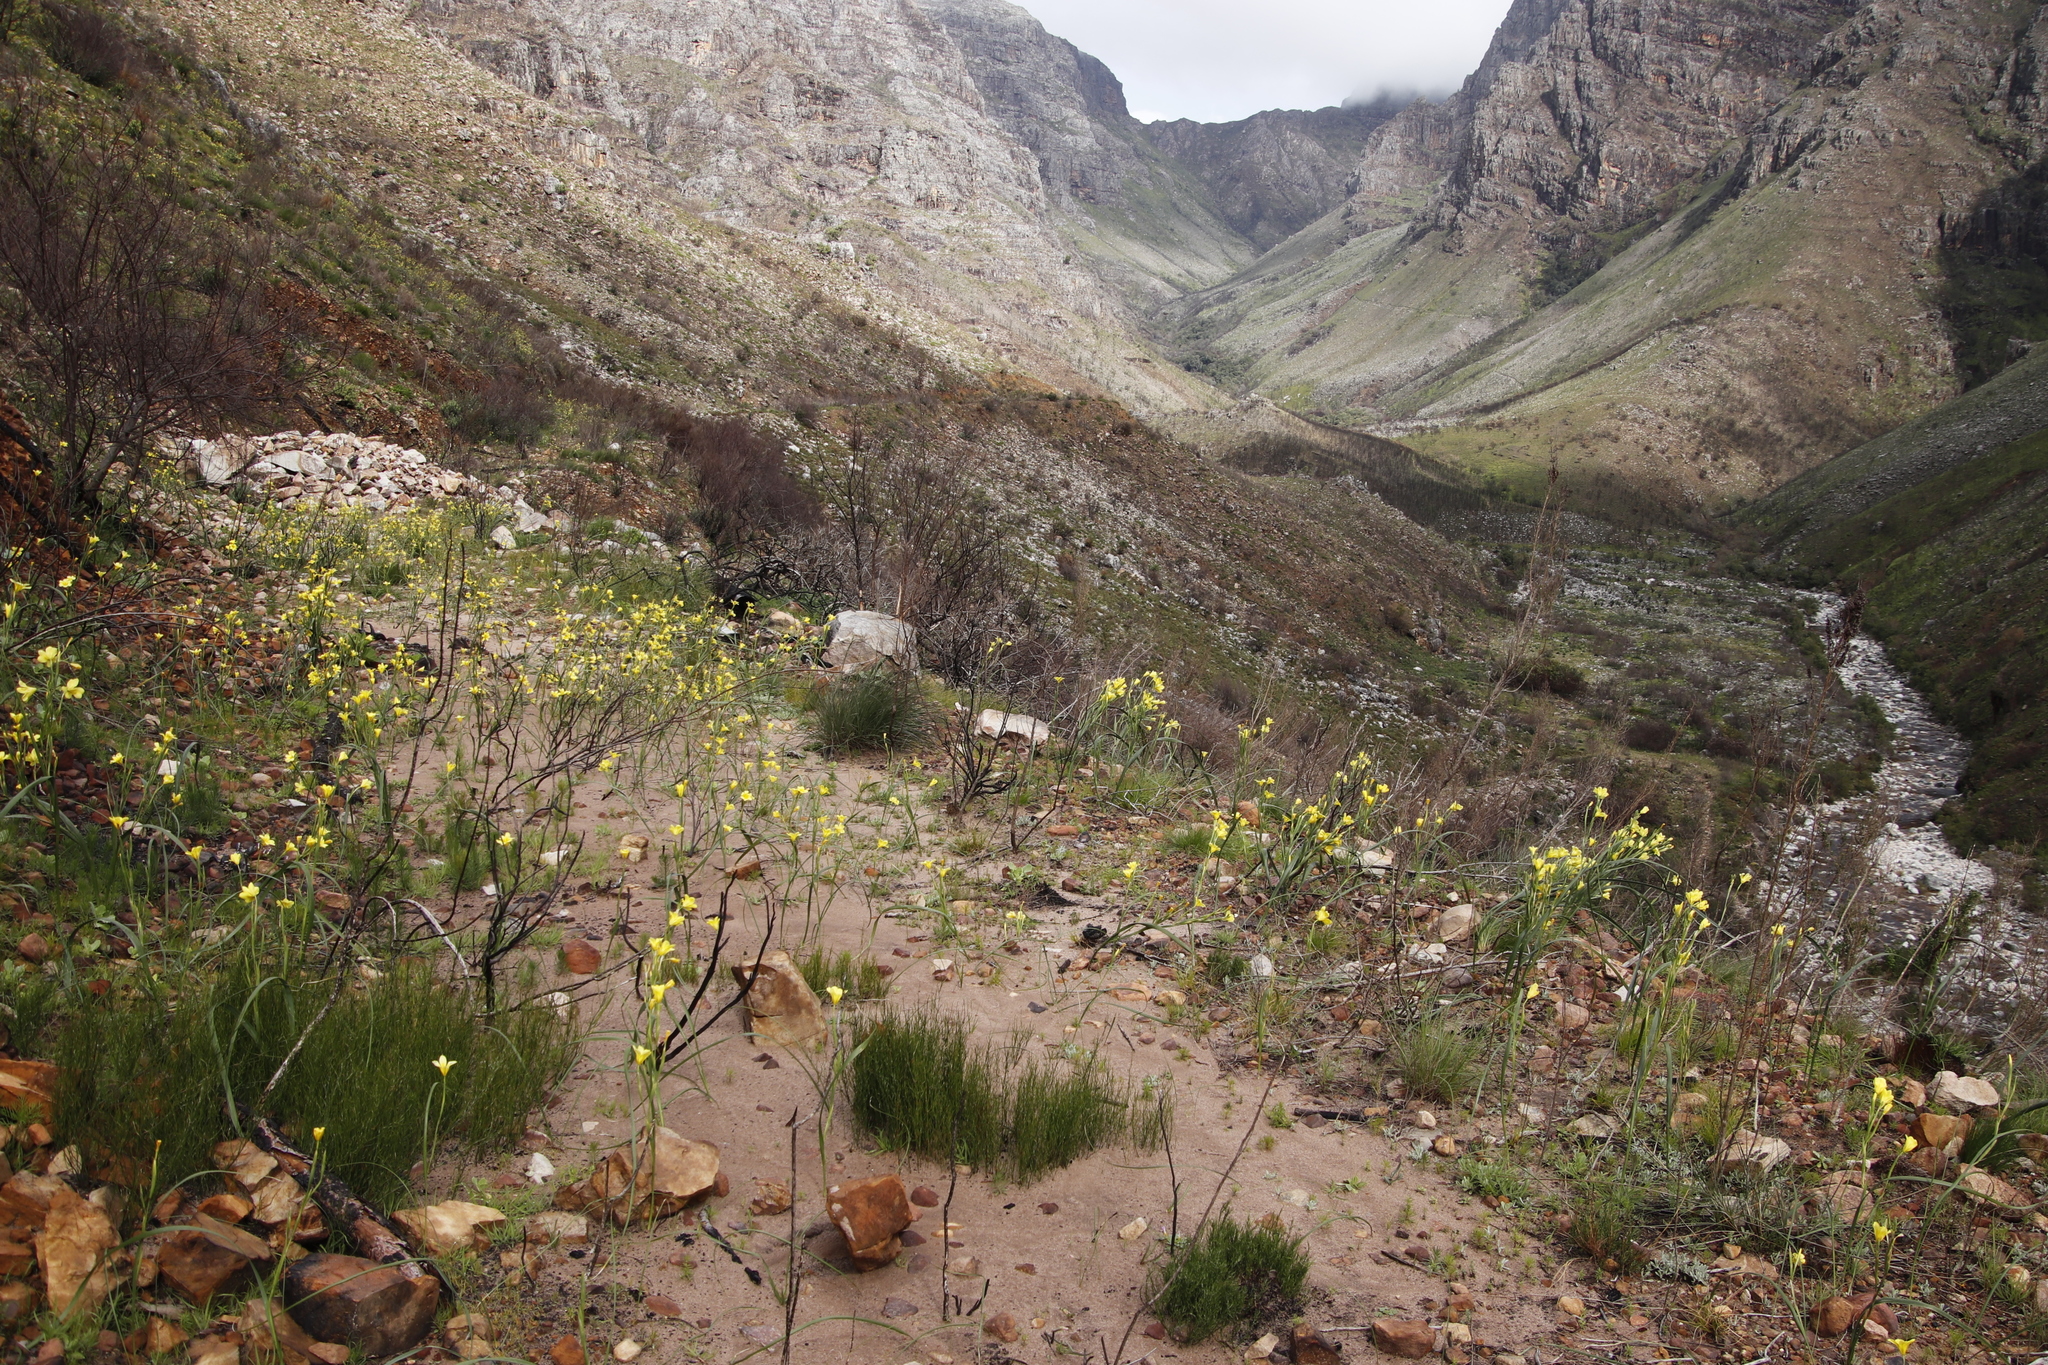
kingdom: Plantae
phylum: Tracheophyta
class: Liliopsida
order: Asparagales
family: Iridaceae
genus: Moraea
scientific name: Moraea ochroleuca
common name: Red tulp
